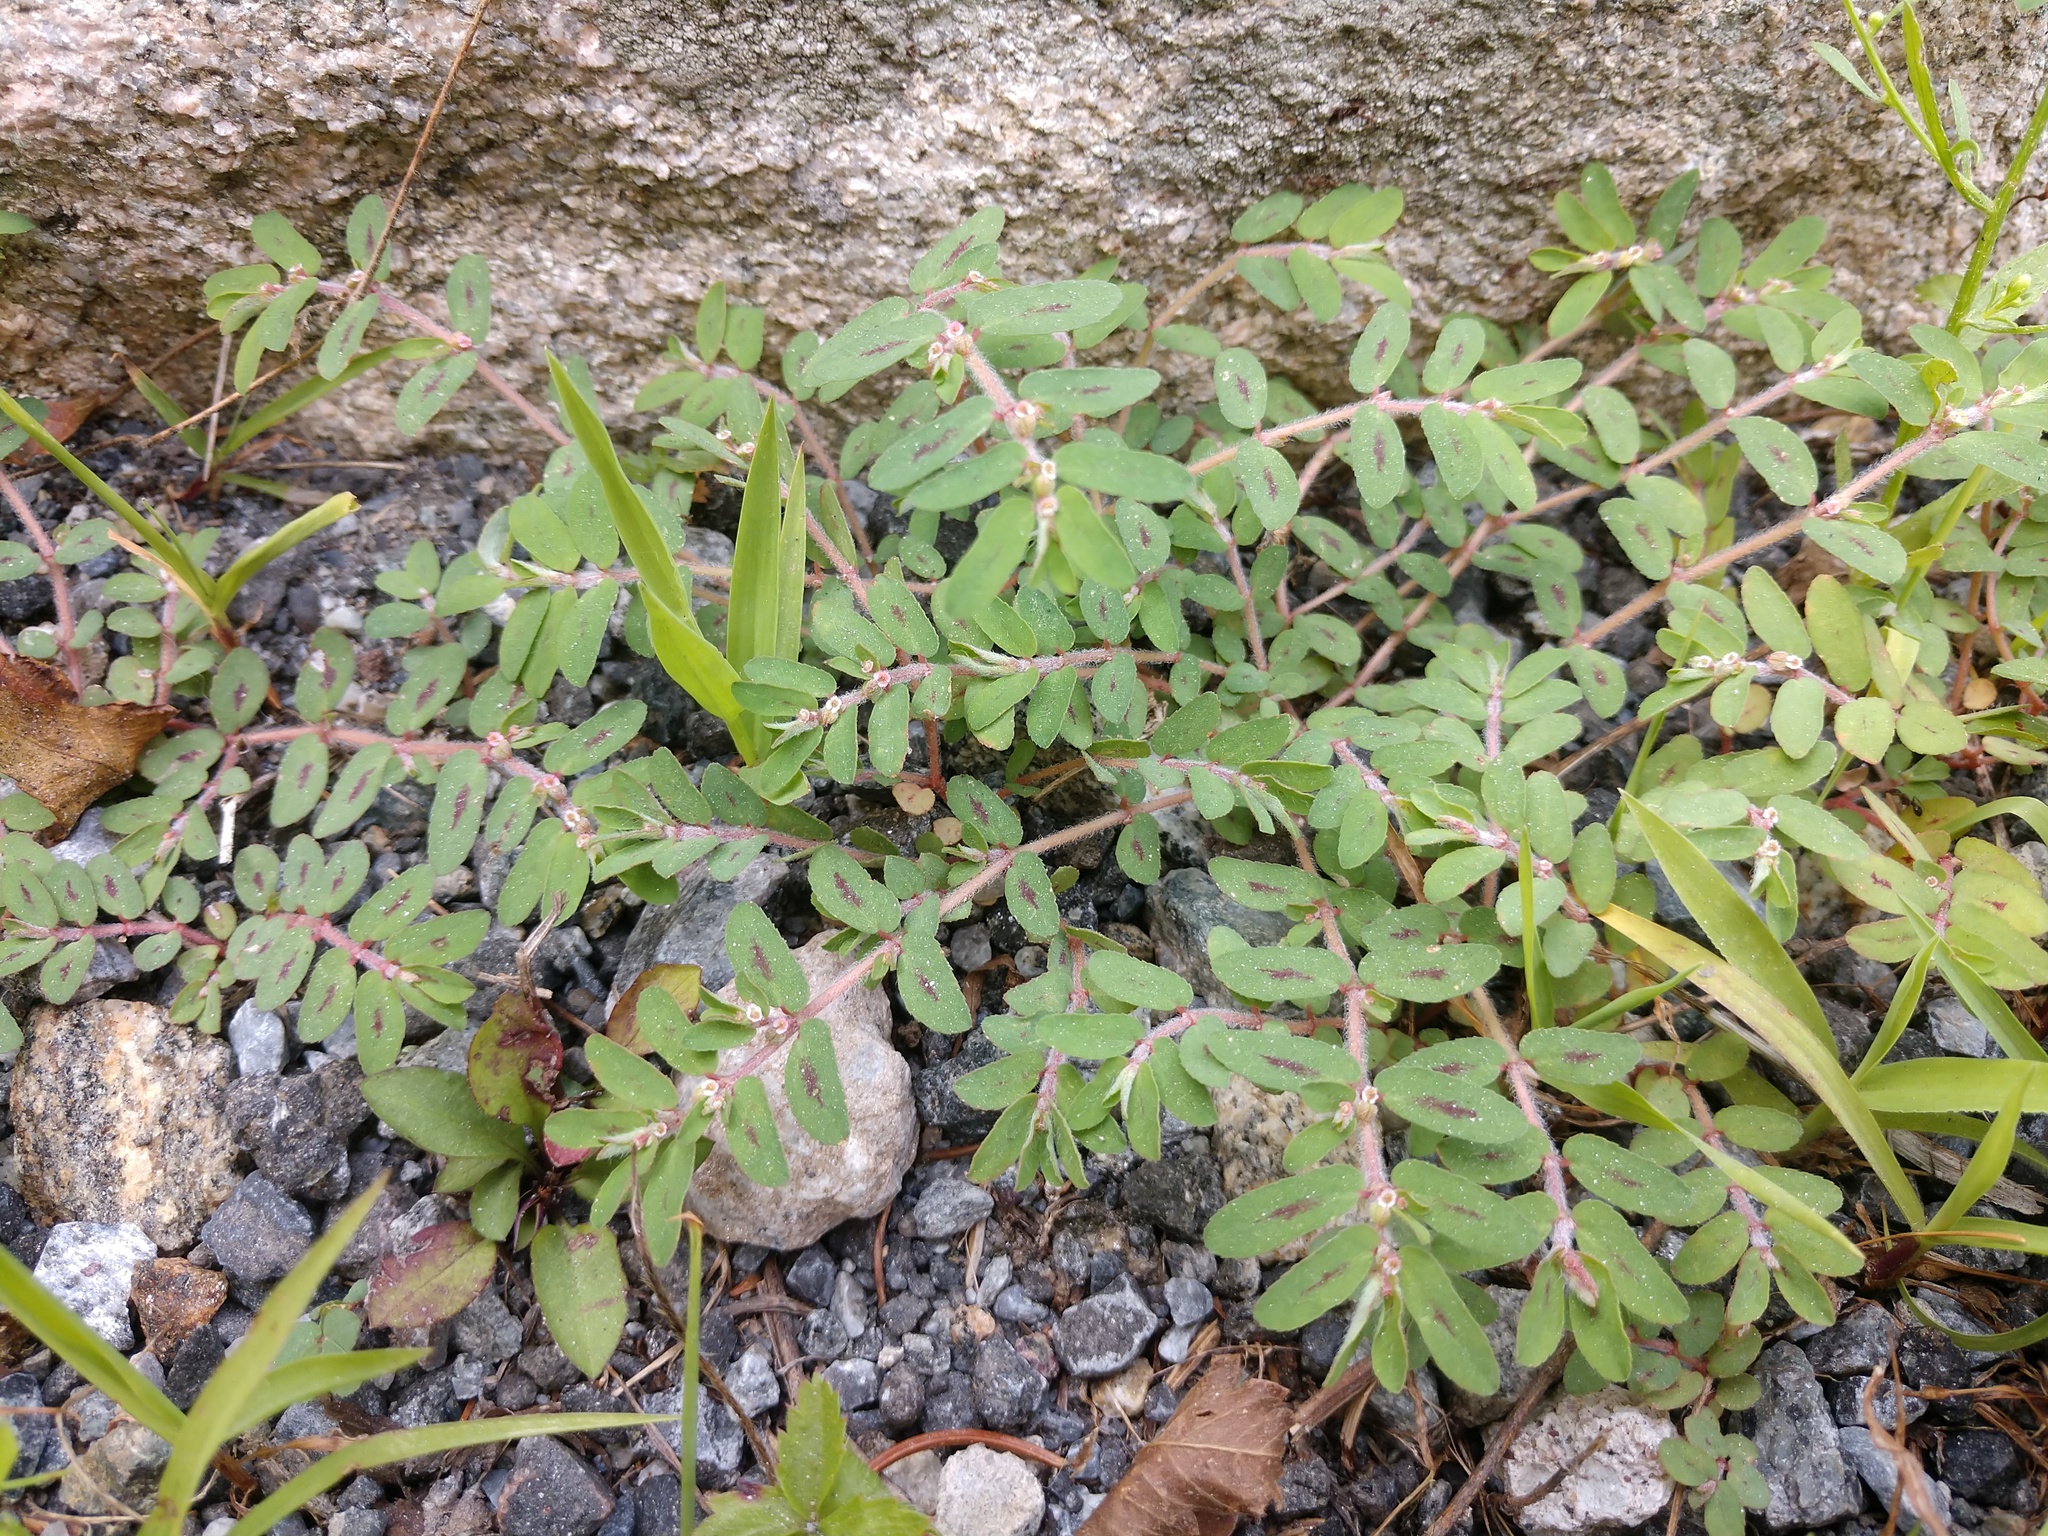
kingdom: Plantae
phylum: Tracheophyta
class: Magnoliopsida
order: Malpighiales
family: Euphorbiaceae
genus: Euphorbia
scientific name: Euphorbia maculata
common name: Spotted spurge
